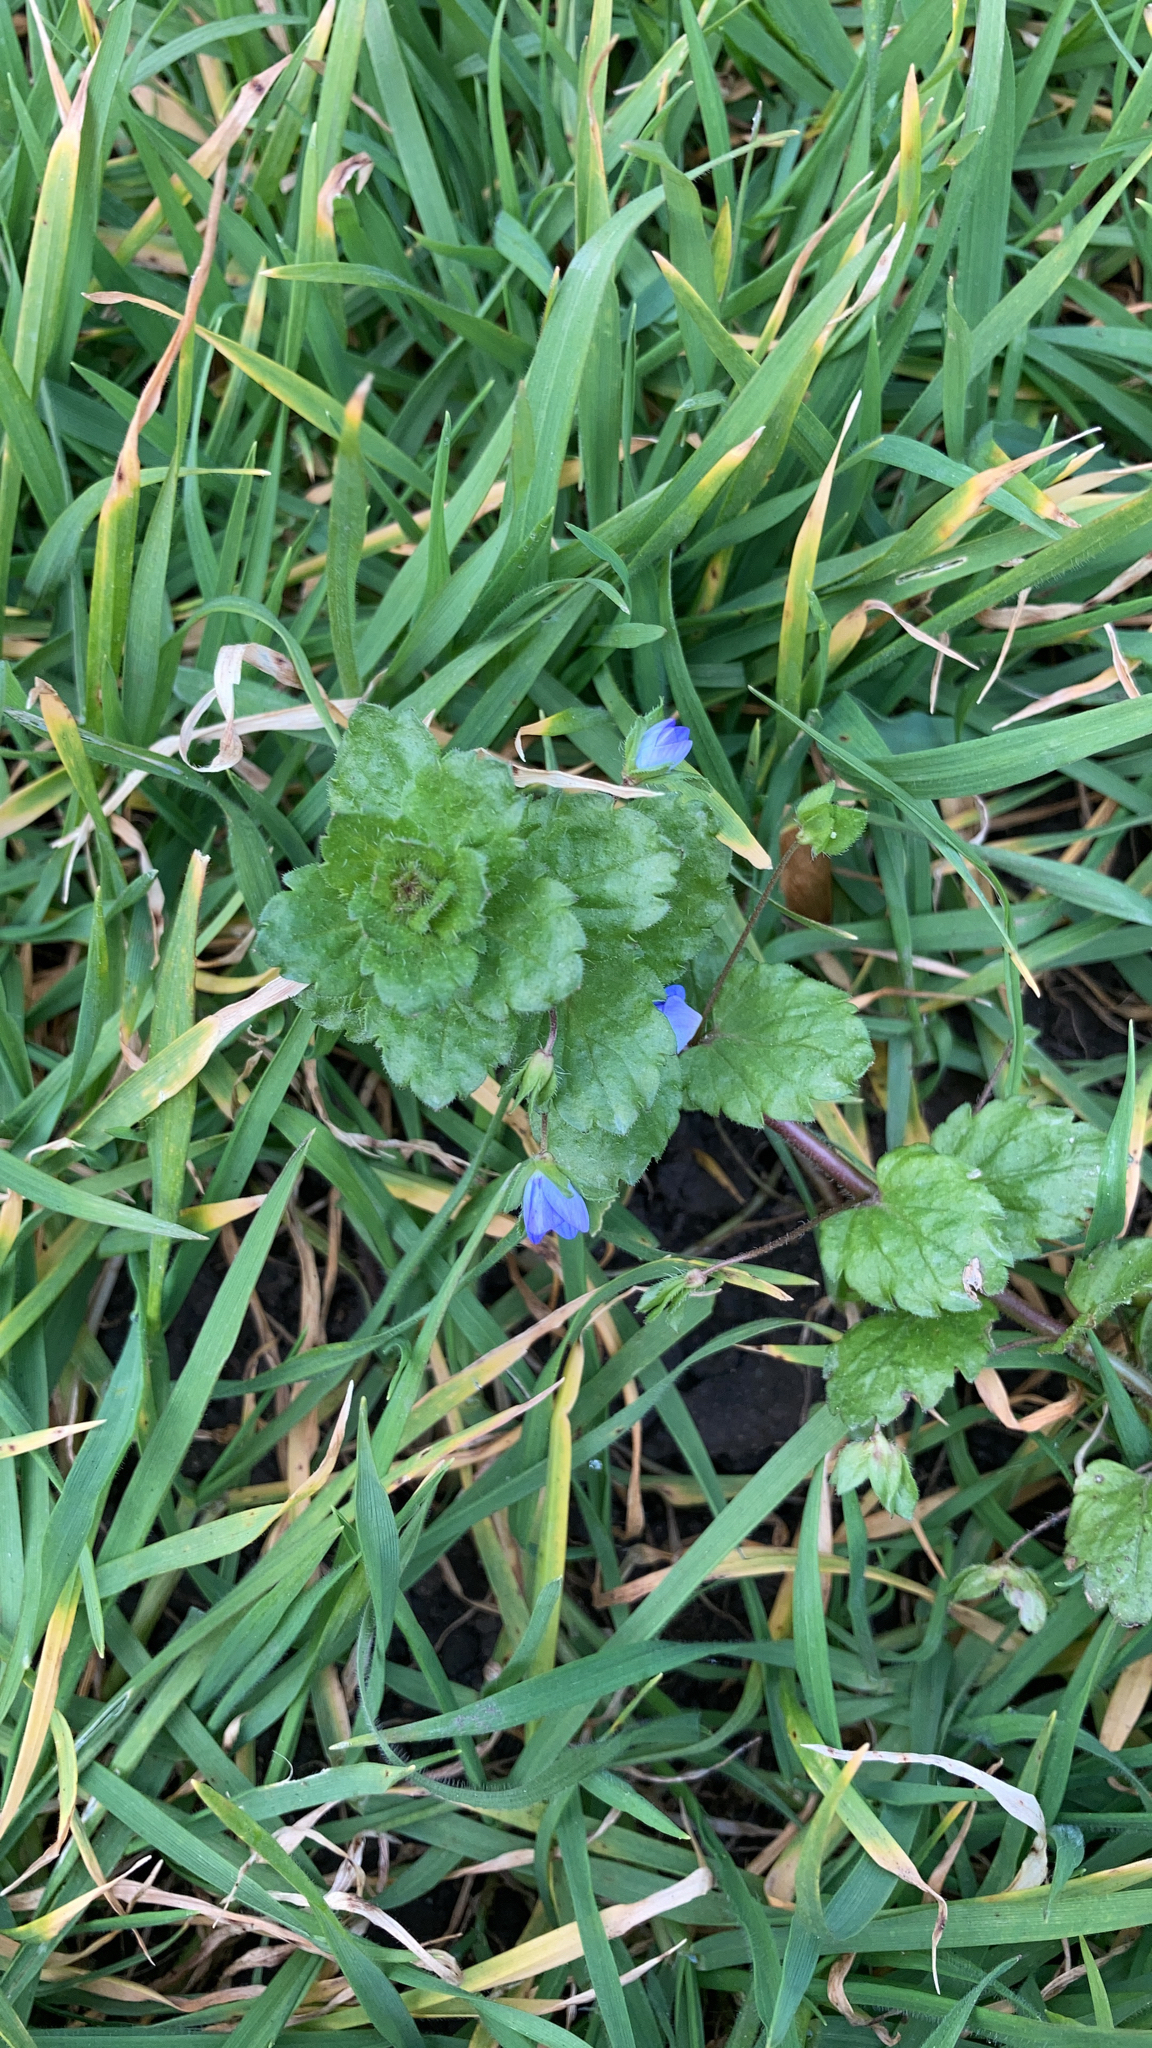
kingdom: Plantae
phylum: Tracheophyta
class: Magnoliopsida
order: Lamiales
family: Plantaginaceae
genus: Veronica
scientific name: Veronica persica
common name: Common field-speedwell
